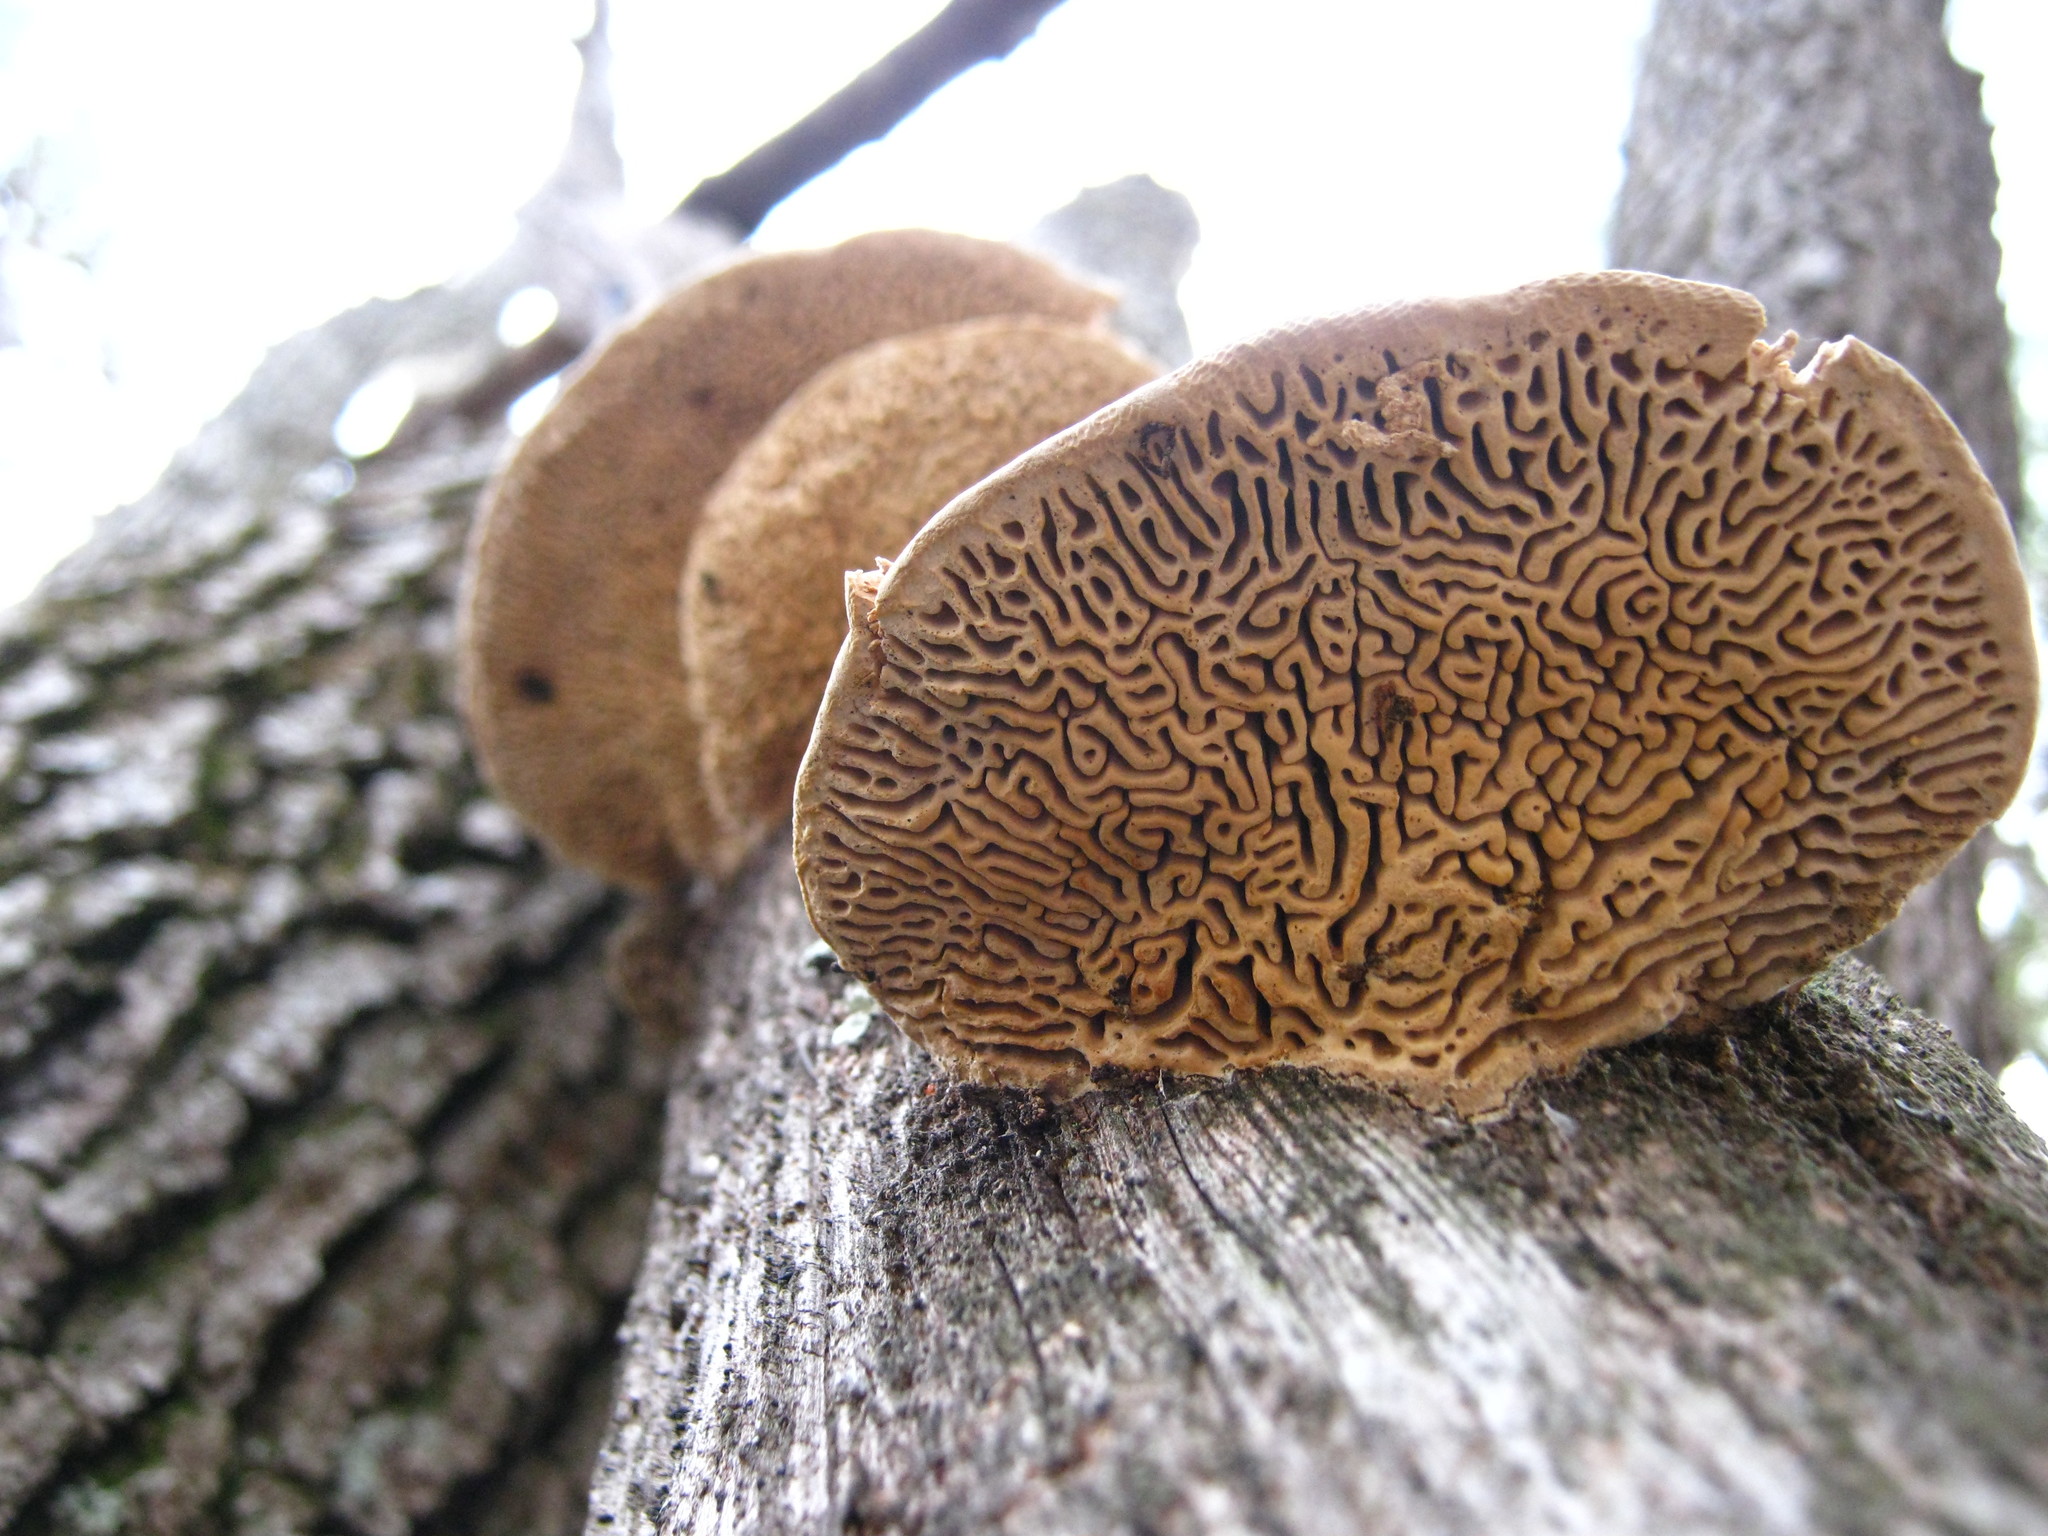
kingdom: Fungi
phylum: Basidiomycota
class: Agaricomycetes
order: Polyporales
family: Fomitopsidaceae
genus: Fomitopsis
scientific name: Fomitopsis
